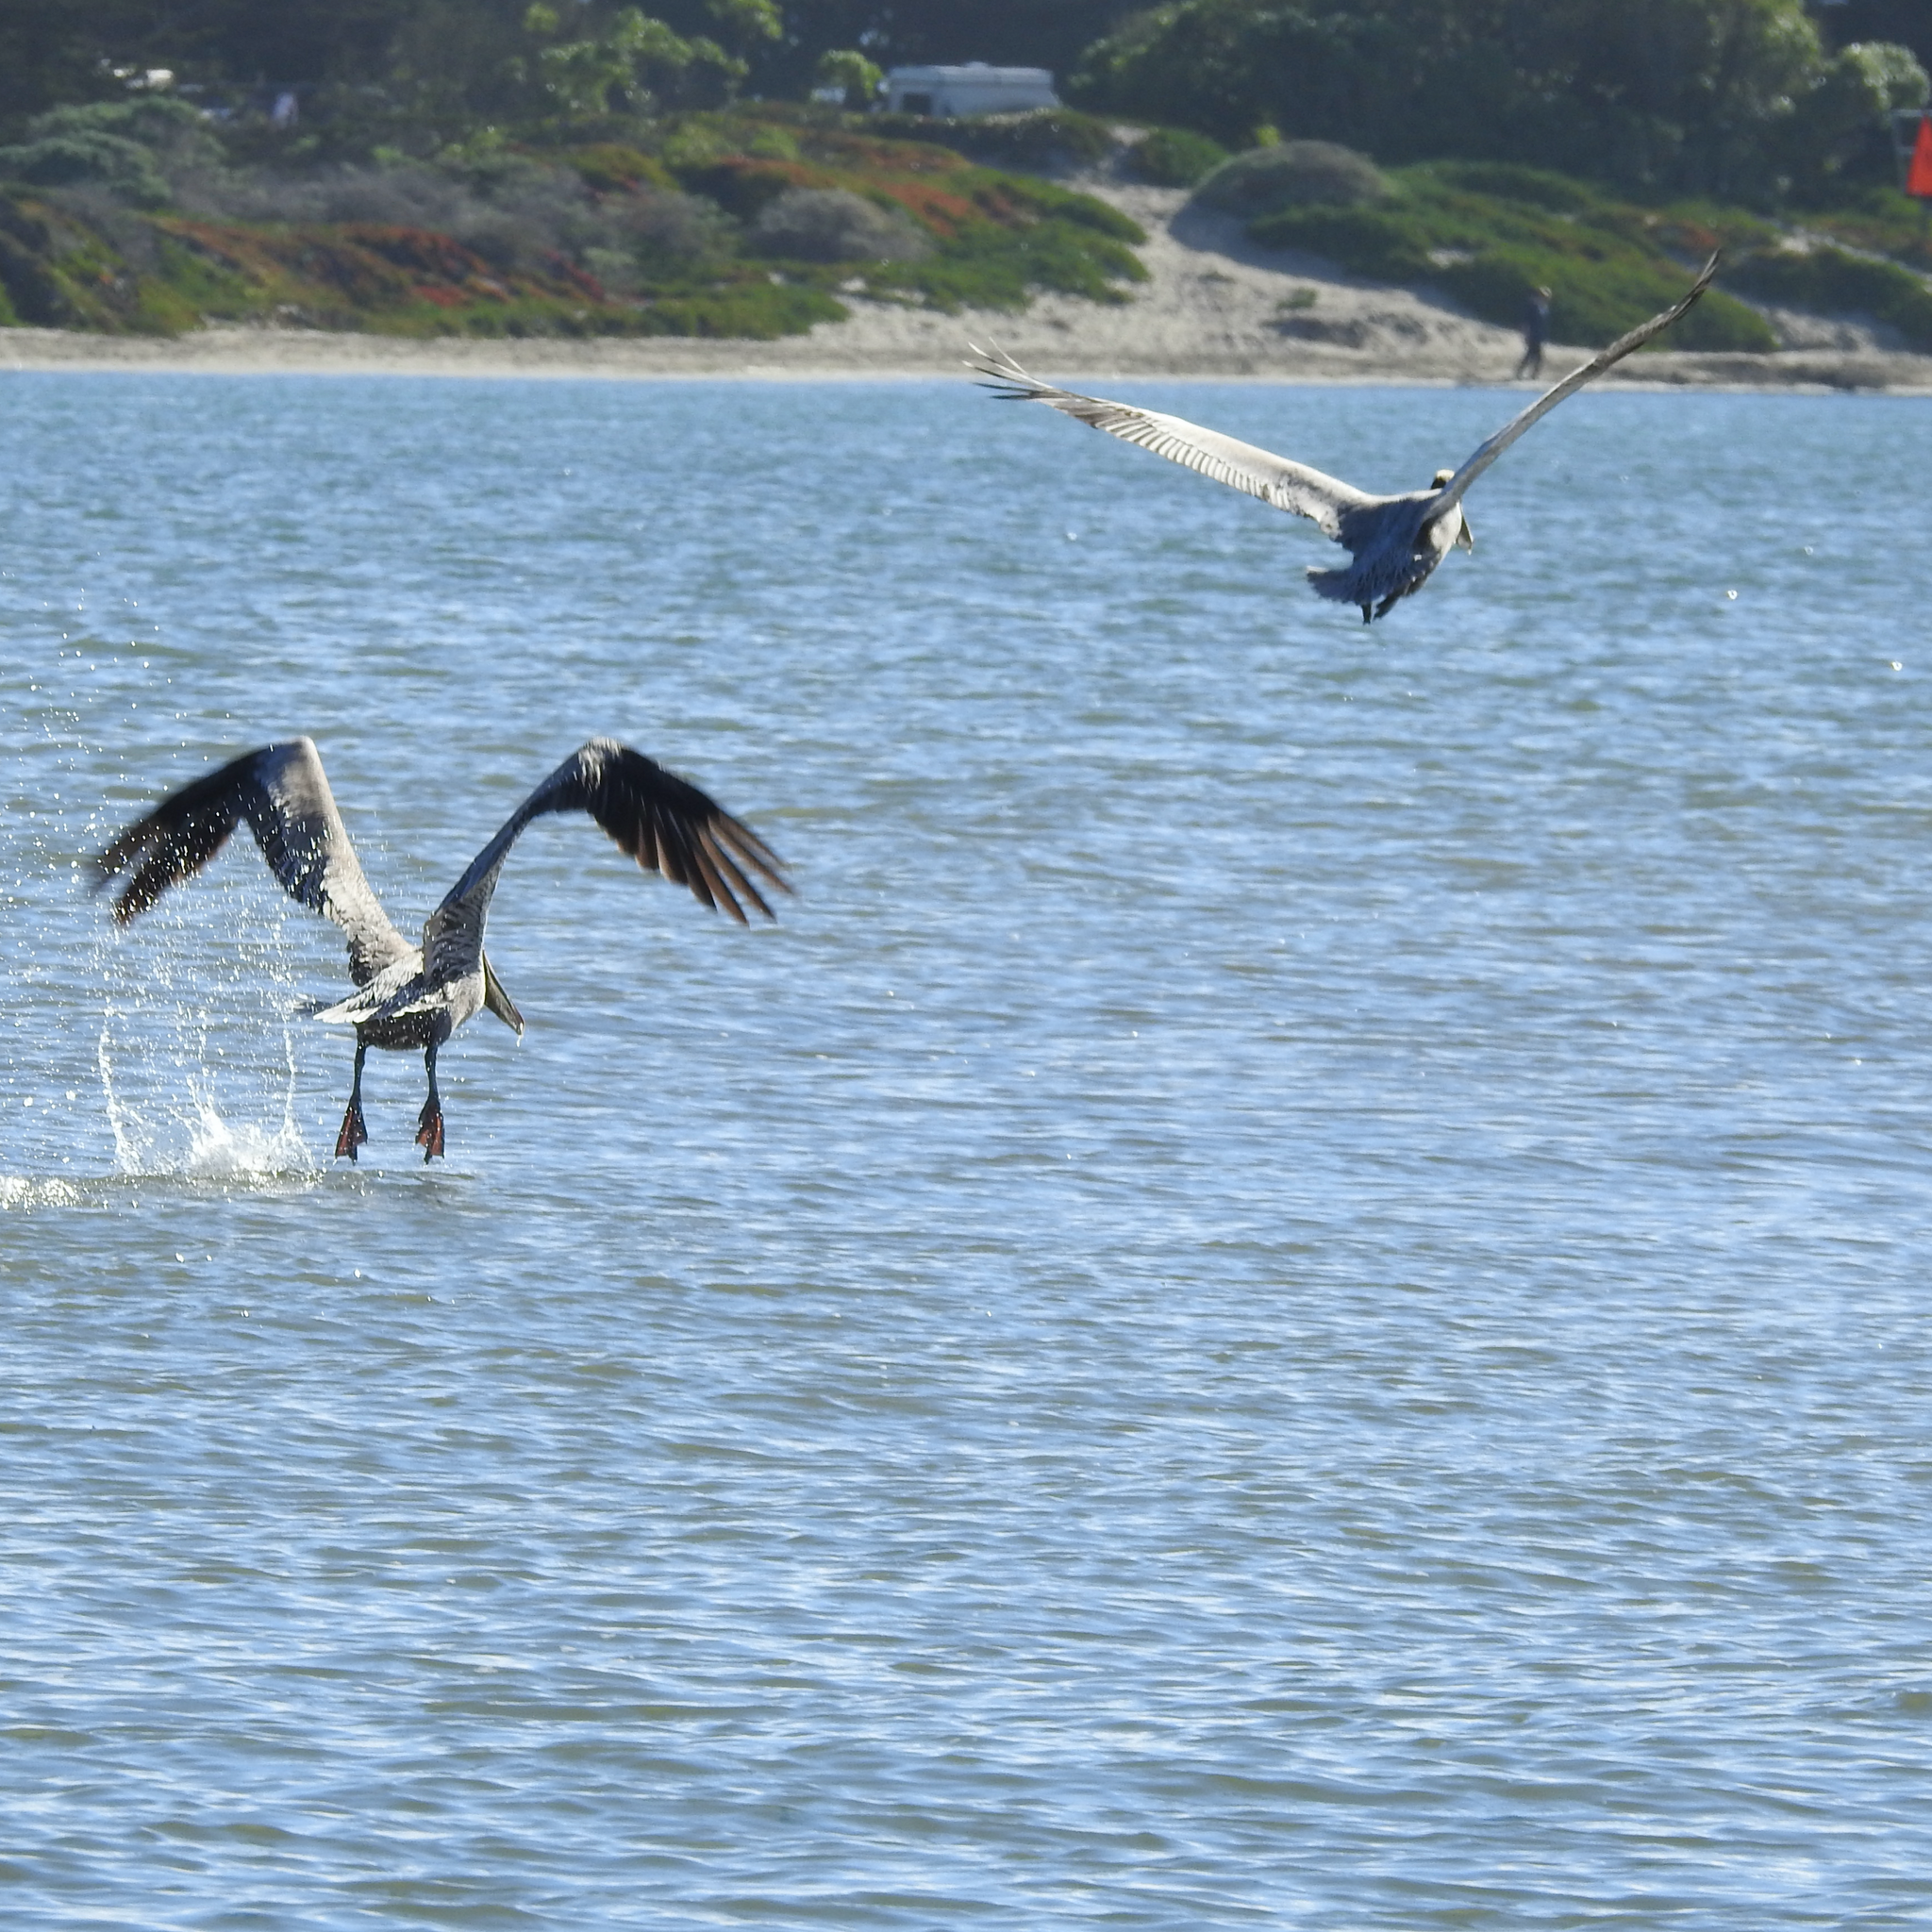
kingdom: Animalia
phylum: Chordata
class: Aves
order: Pelecaniformes
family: Pelecanidae
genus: Pelecanus
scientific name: Pelecanus occidentalis
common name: Brown pelican
